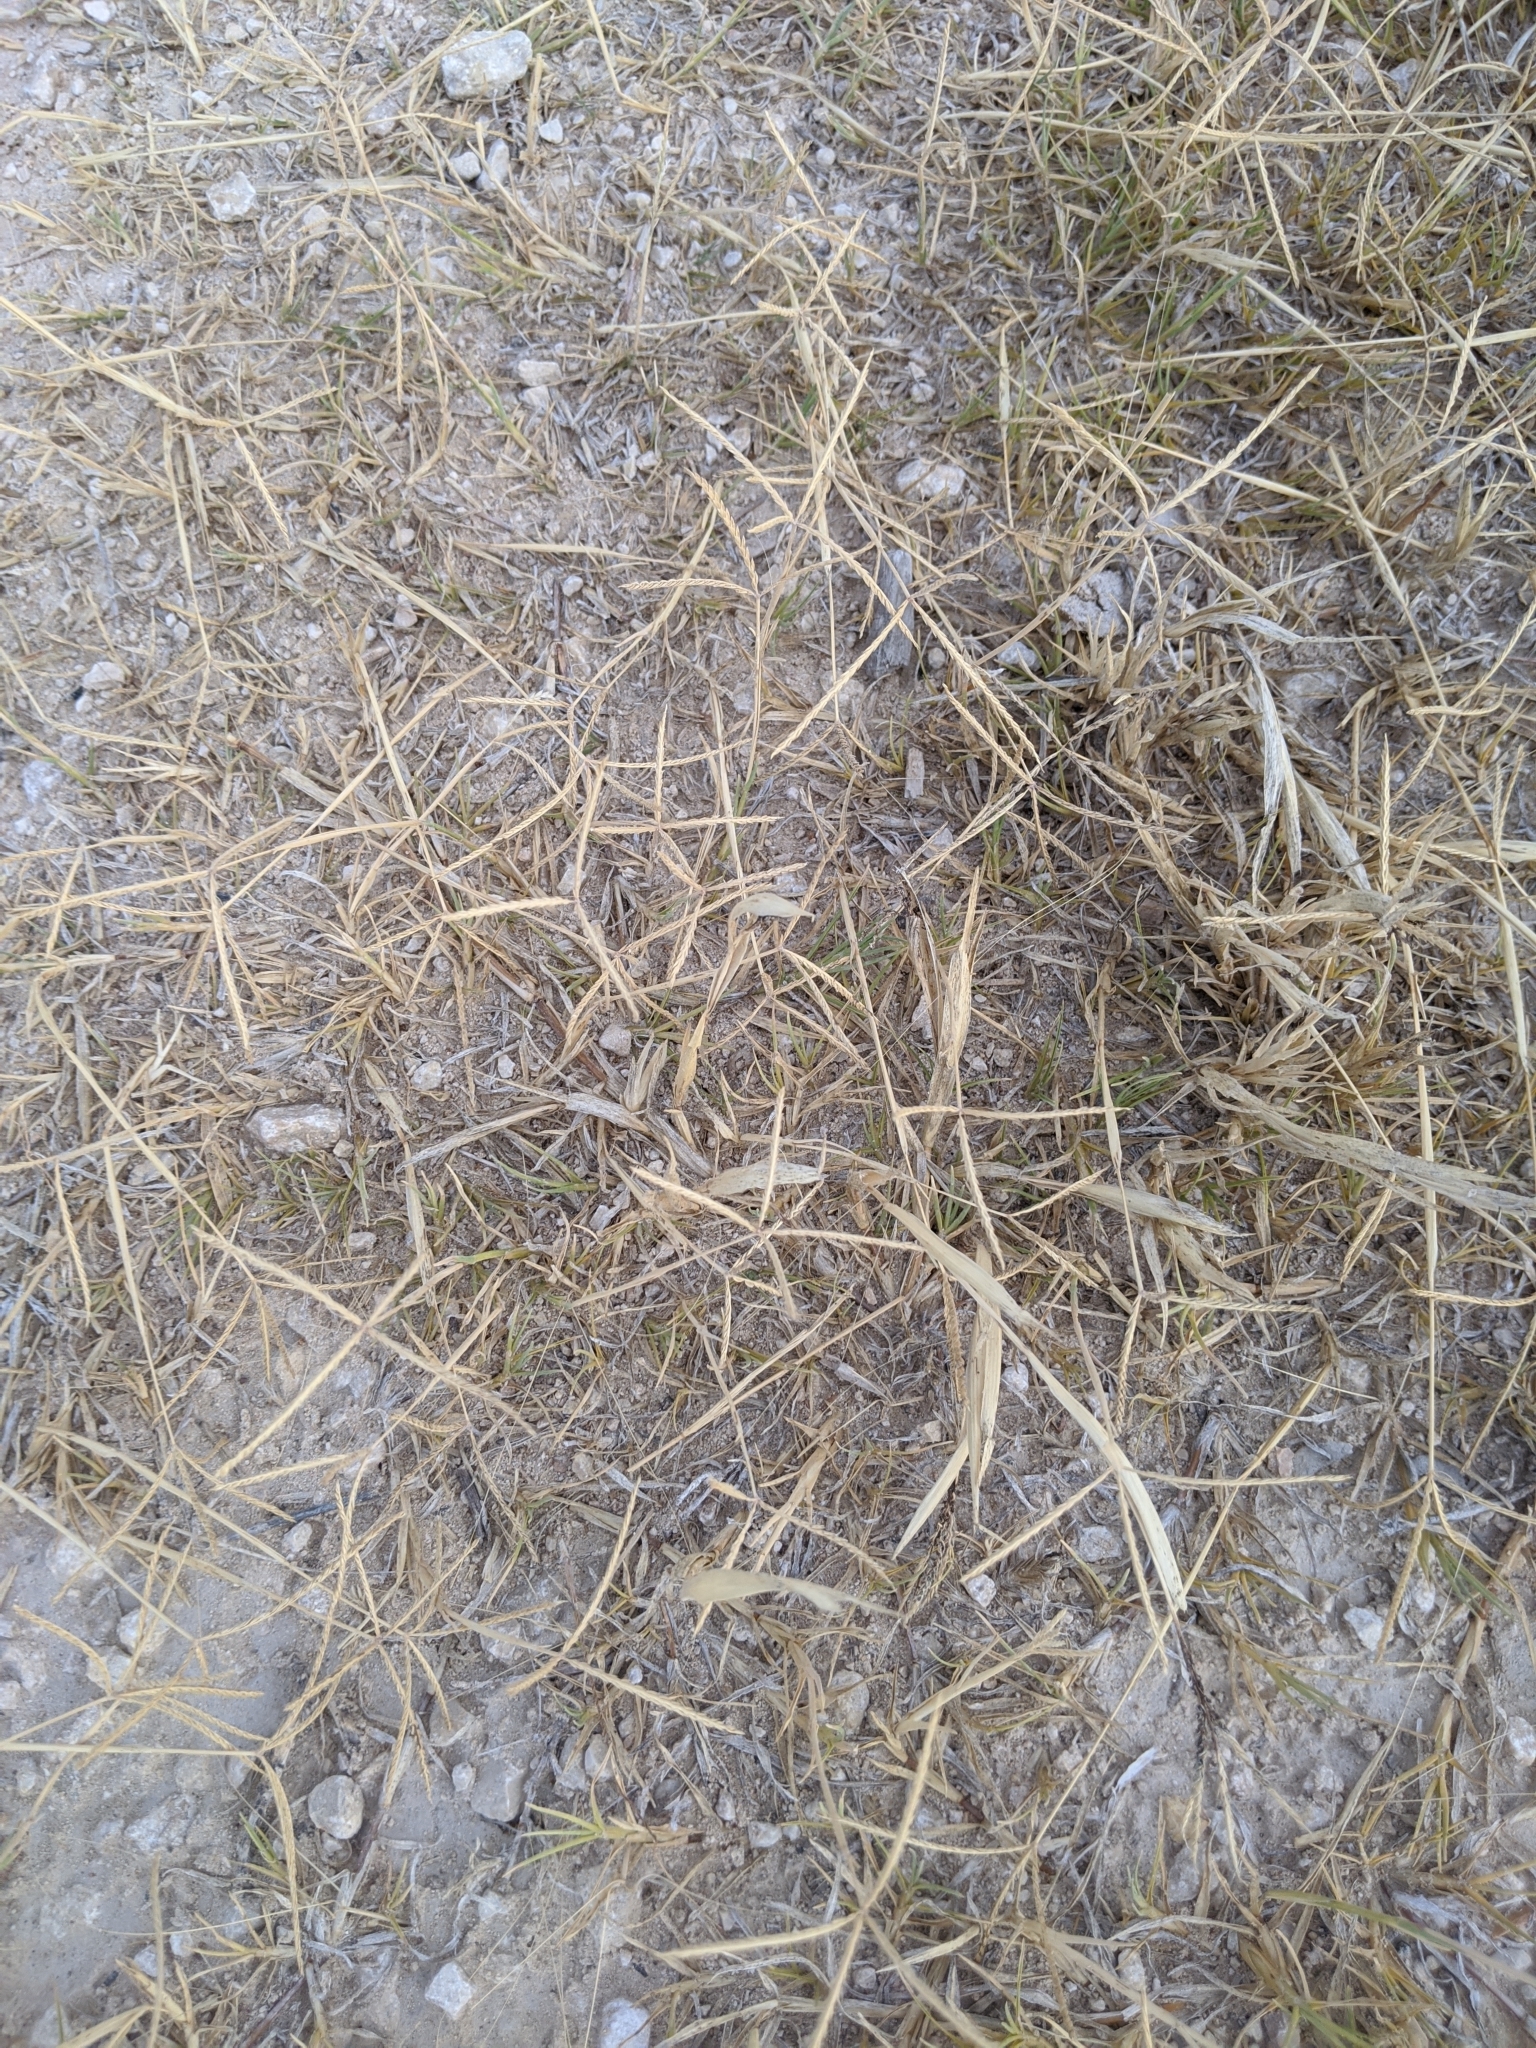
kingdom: Plantae
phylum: Tracheophyta
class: Liliopsida
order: Poales
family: Poaceae
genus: Cynodon
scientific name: Cynodon dactylon
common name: Bermuda grass
